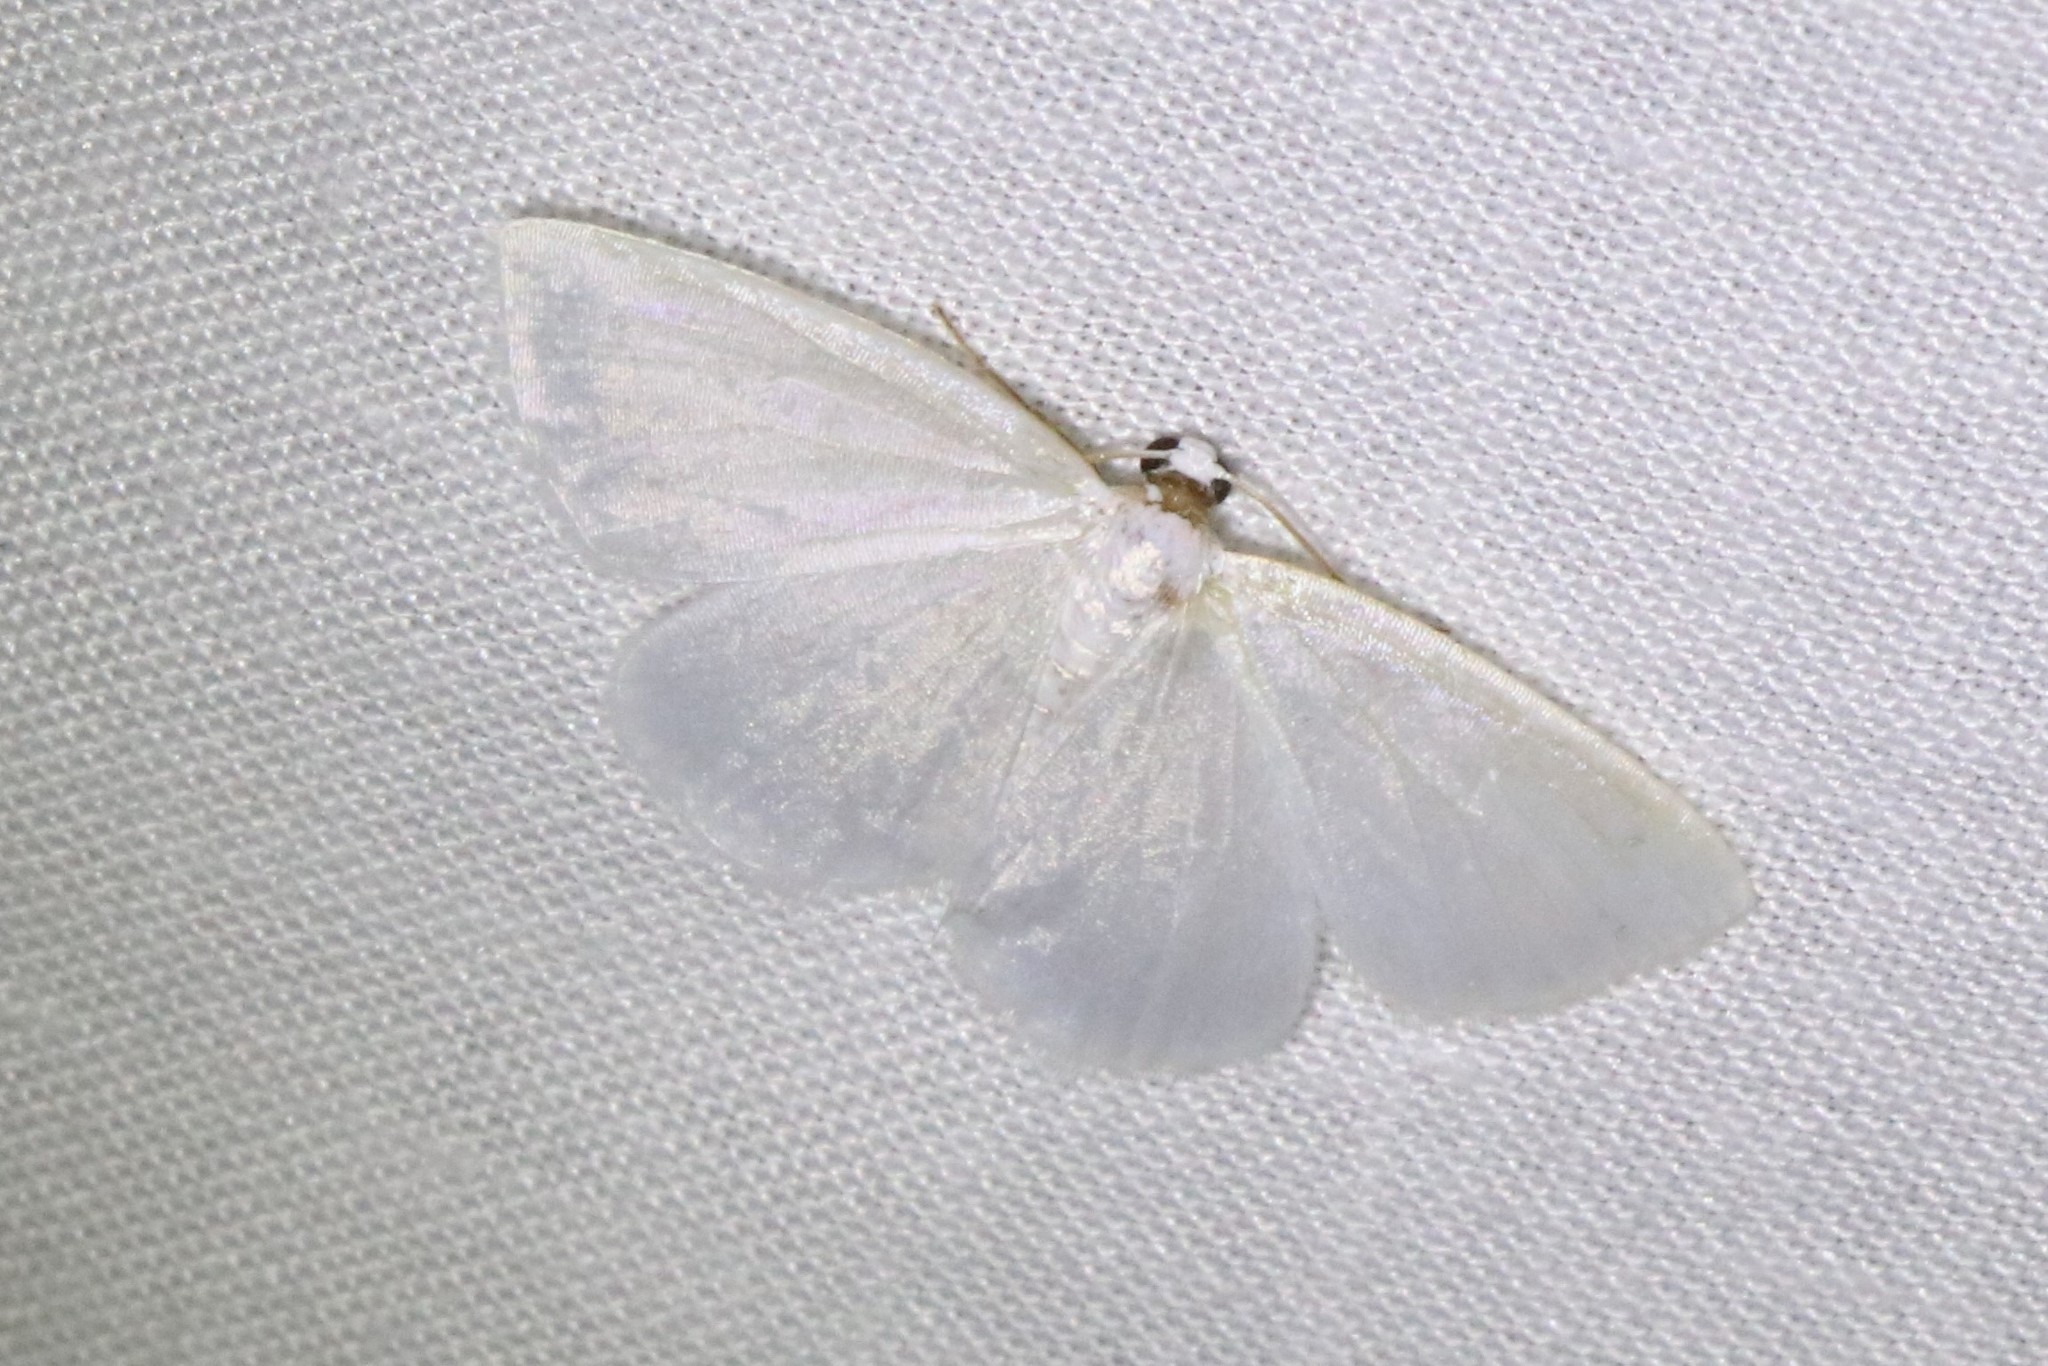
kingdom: Animalia
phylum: Arthropoda
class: Insecta
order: Lepidoptera
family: Geometridae
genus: Lomographa
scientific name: Lomographa vestaliata
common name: White spring moth
